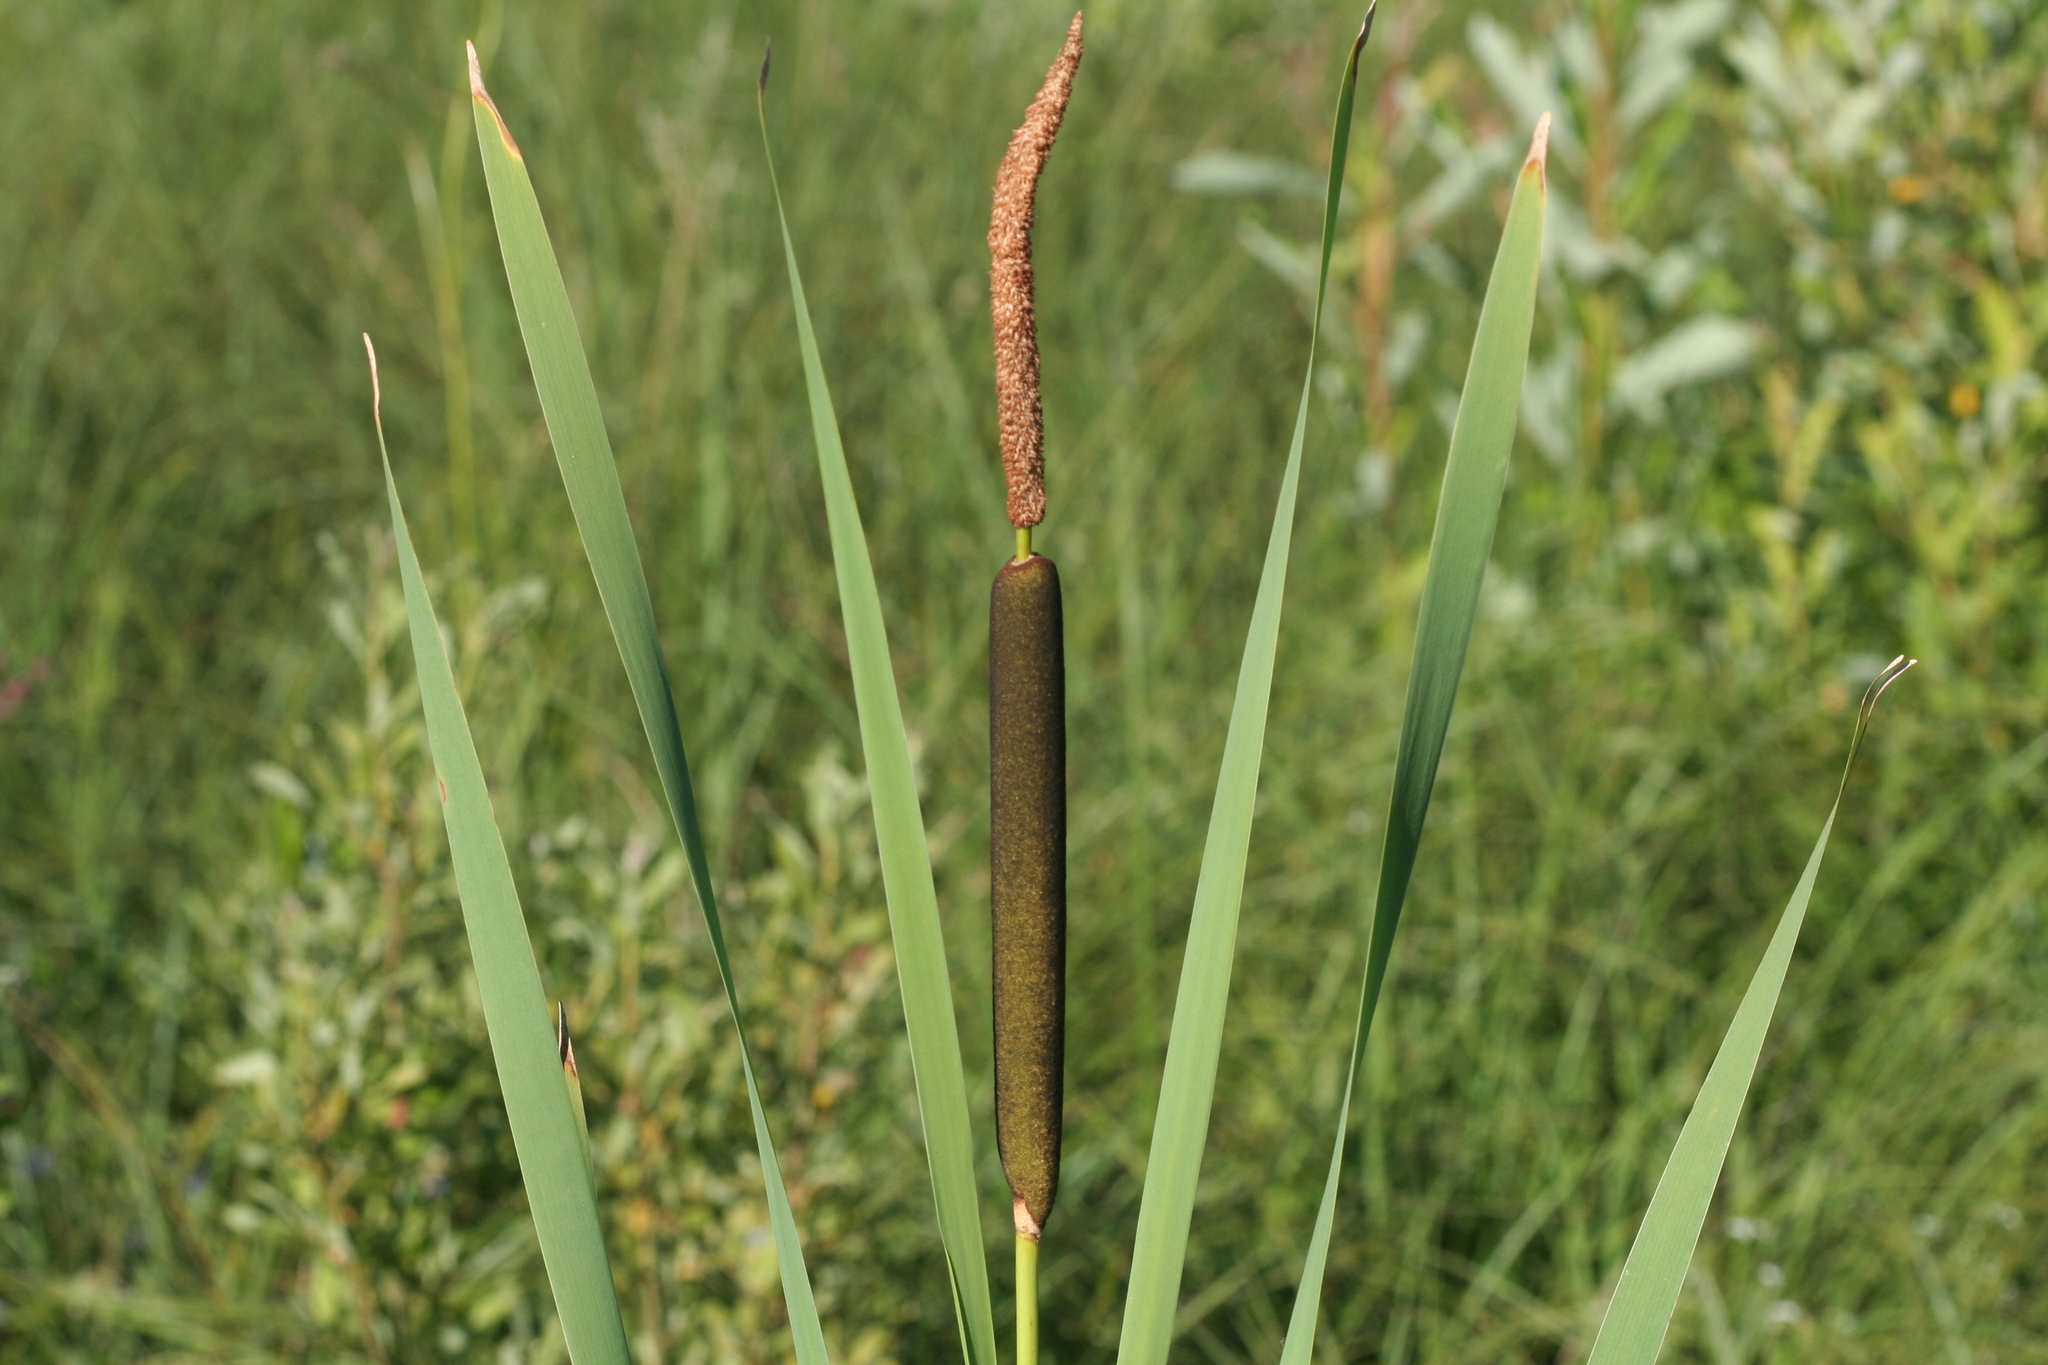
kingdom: Plantae
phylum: Tracheophyta
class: Liliopsida
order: Poales
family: Typhaceae
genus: Typha
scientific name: Typha latifolia
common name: Broadleaf cattail
